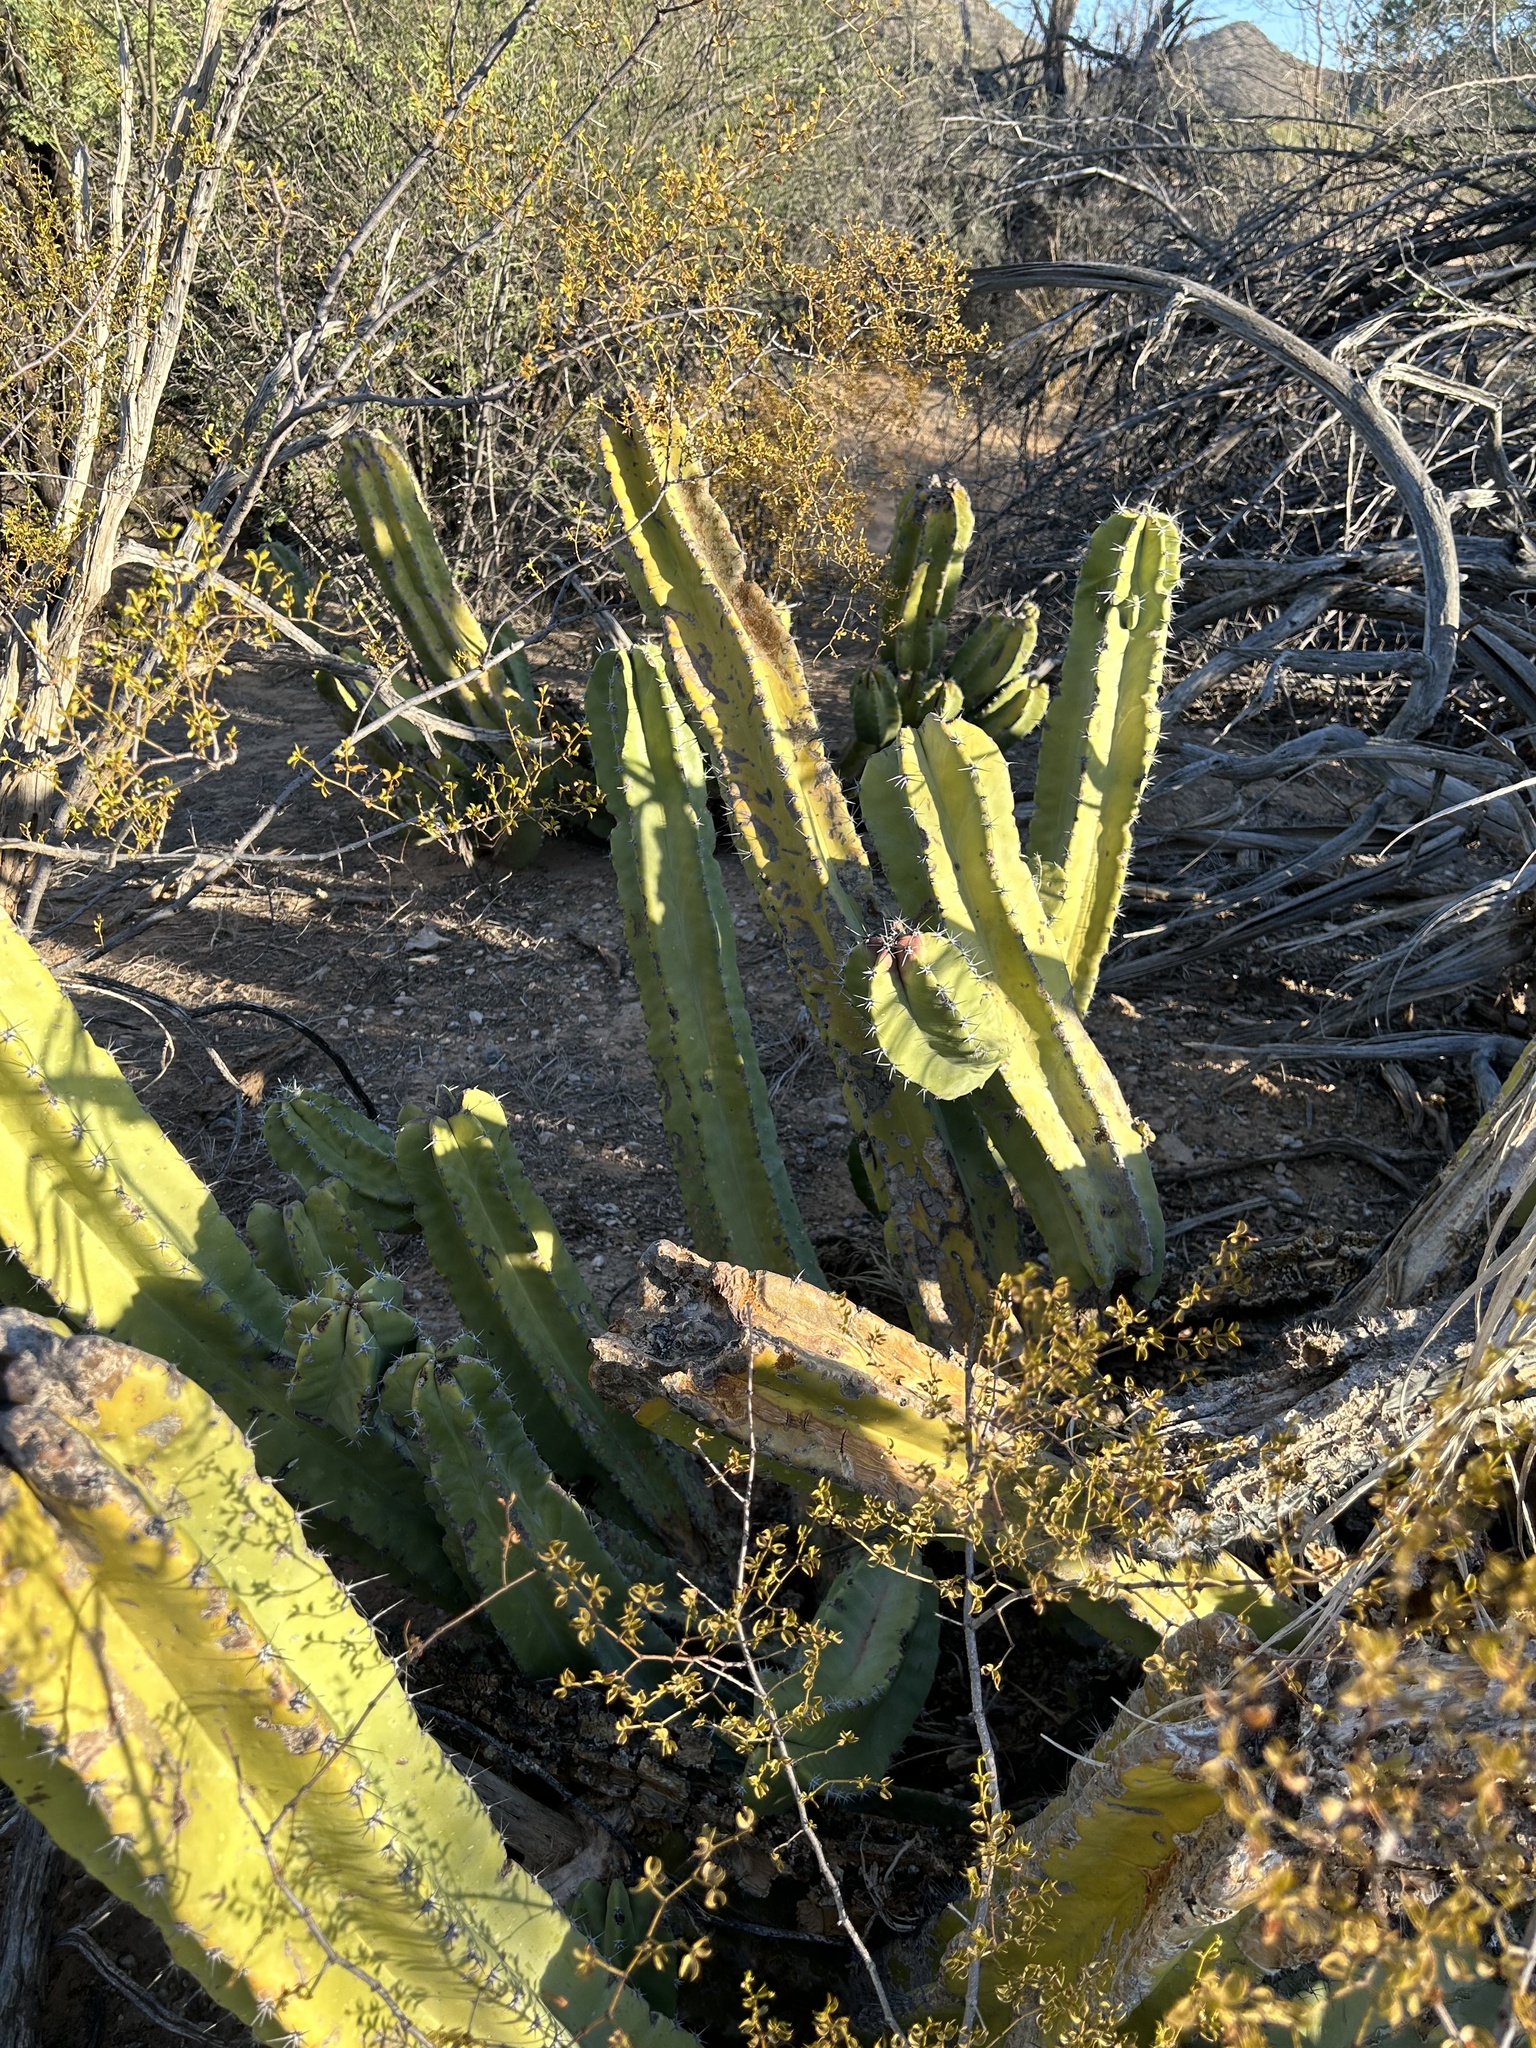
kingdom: Plantae
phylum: Tracheophyta
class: Magnoliopsida
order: Caryophyllales
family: Cactaceae
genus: Pachycereus
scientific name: Pachycereus schottii
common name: Senita cactus
